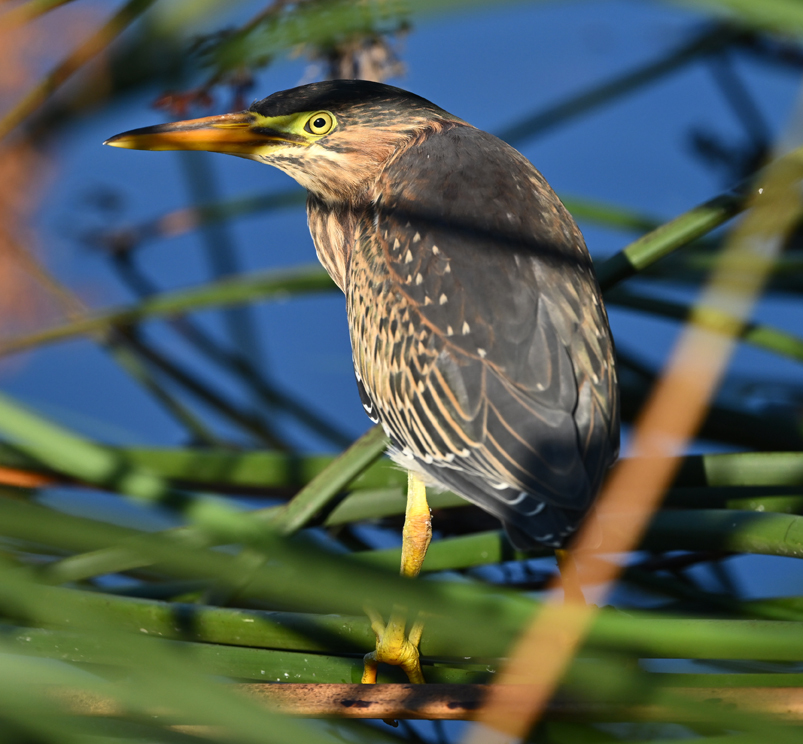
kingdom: Animalia
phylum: Chordata
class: Aves
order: Pelecaniformes
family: Ardeidae
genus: Butorides
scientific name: Butorides virescens
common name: Green heron
